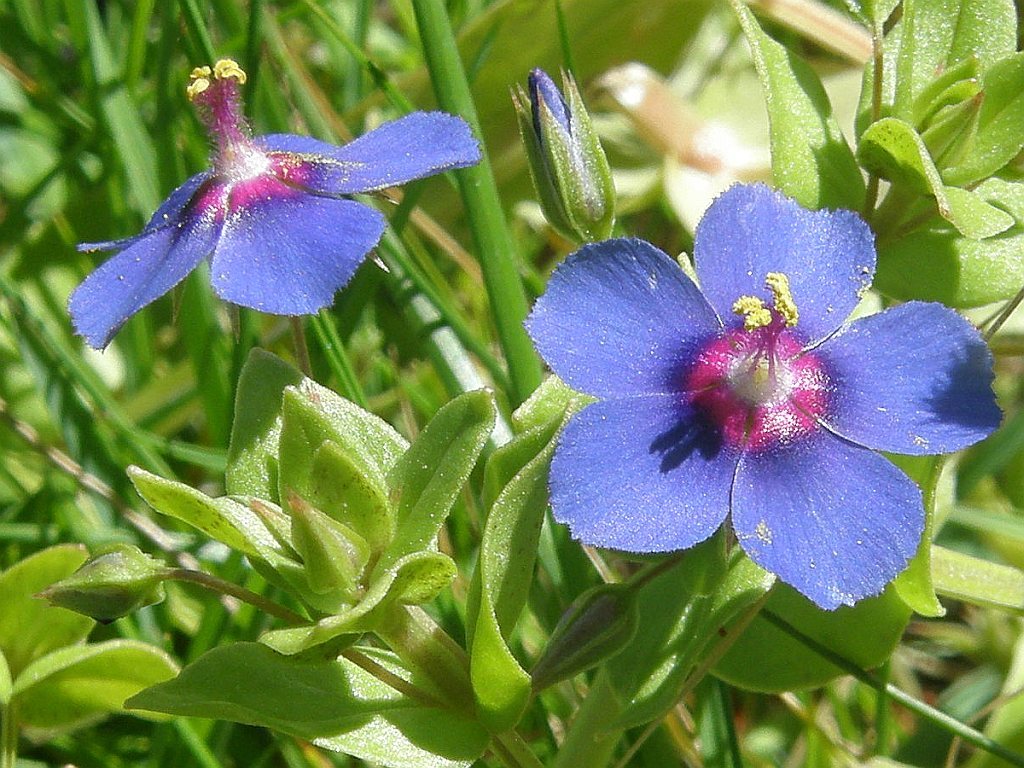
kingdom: Plantae
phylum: Tracheophyta
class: Magnoliopsida
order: Ericales
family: Primulaceae
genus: Lysimachia
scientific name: Lysimachia loeflingii
